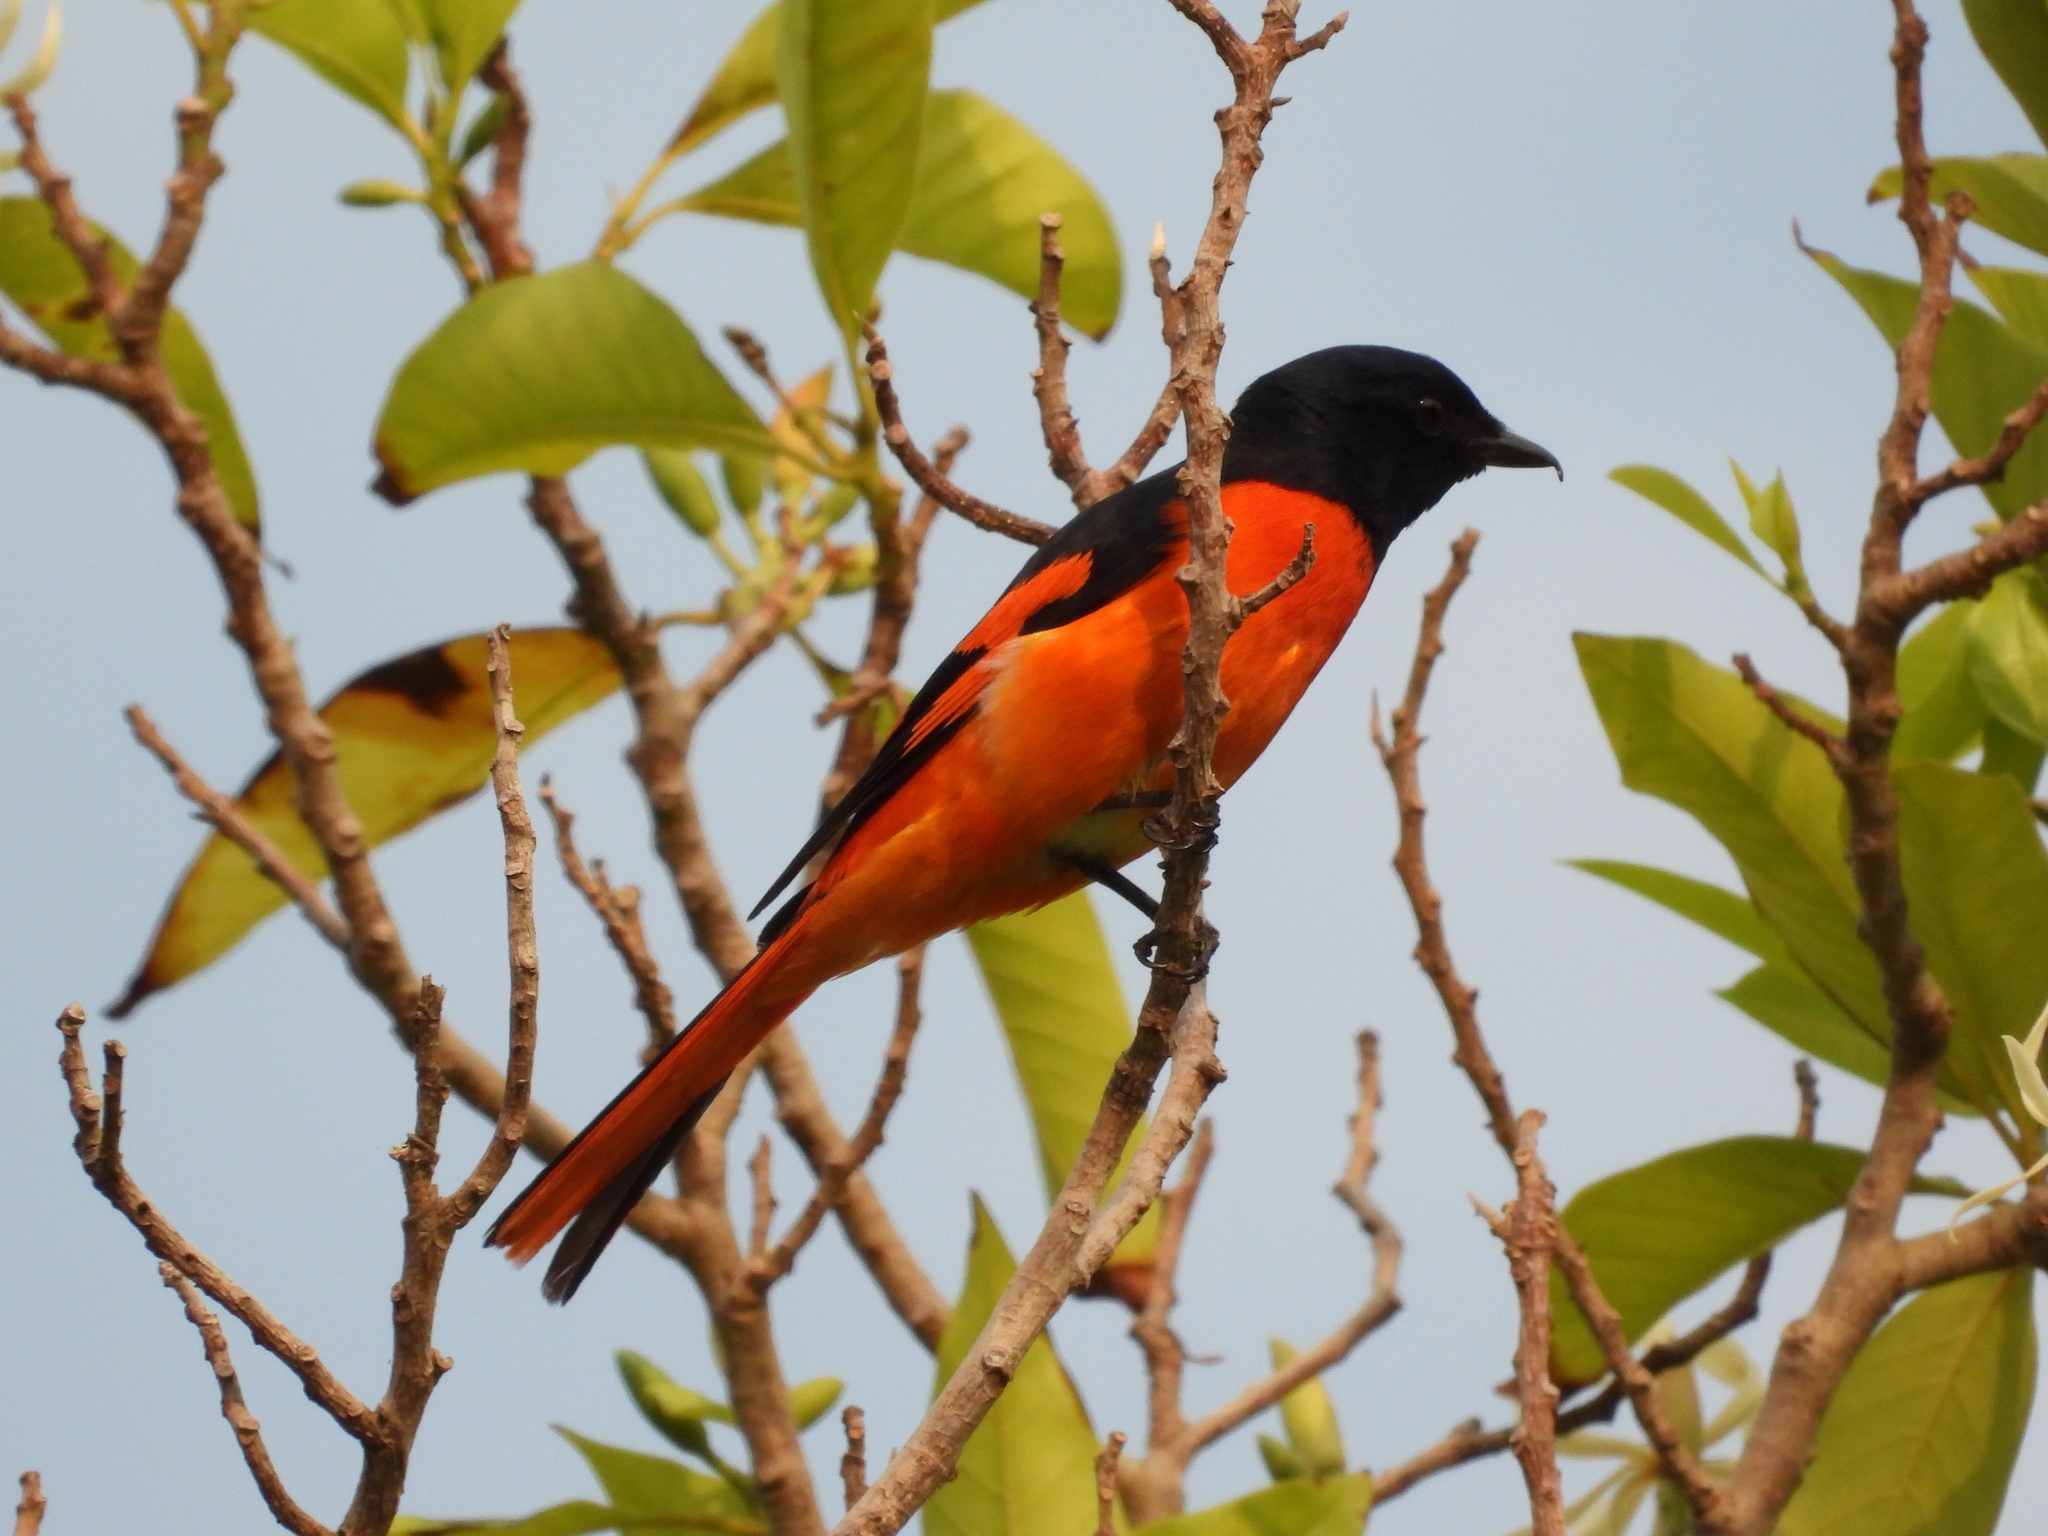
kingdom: Animalia
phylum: Chordata
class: Aves
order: Passeriformes
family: Campephagidae
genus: Pericrocotus
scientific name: Pericrocotus speciosus
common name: Scarlet minivet
